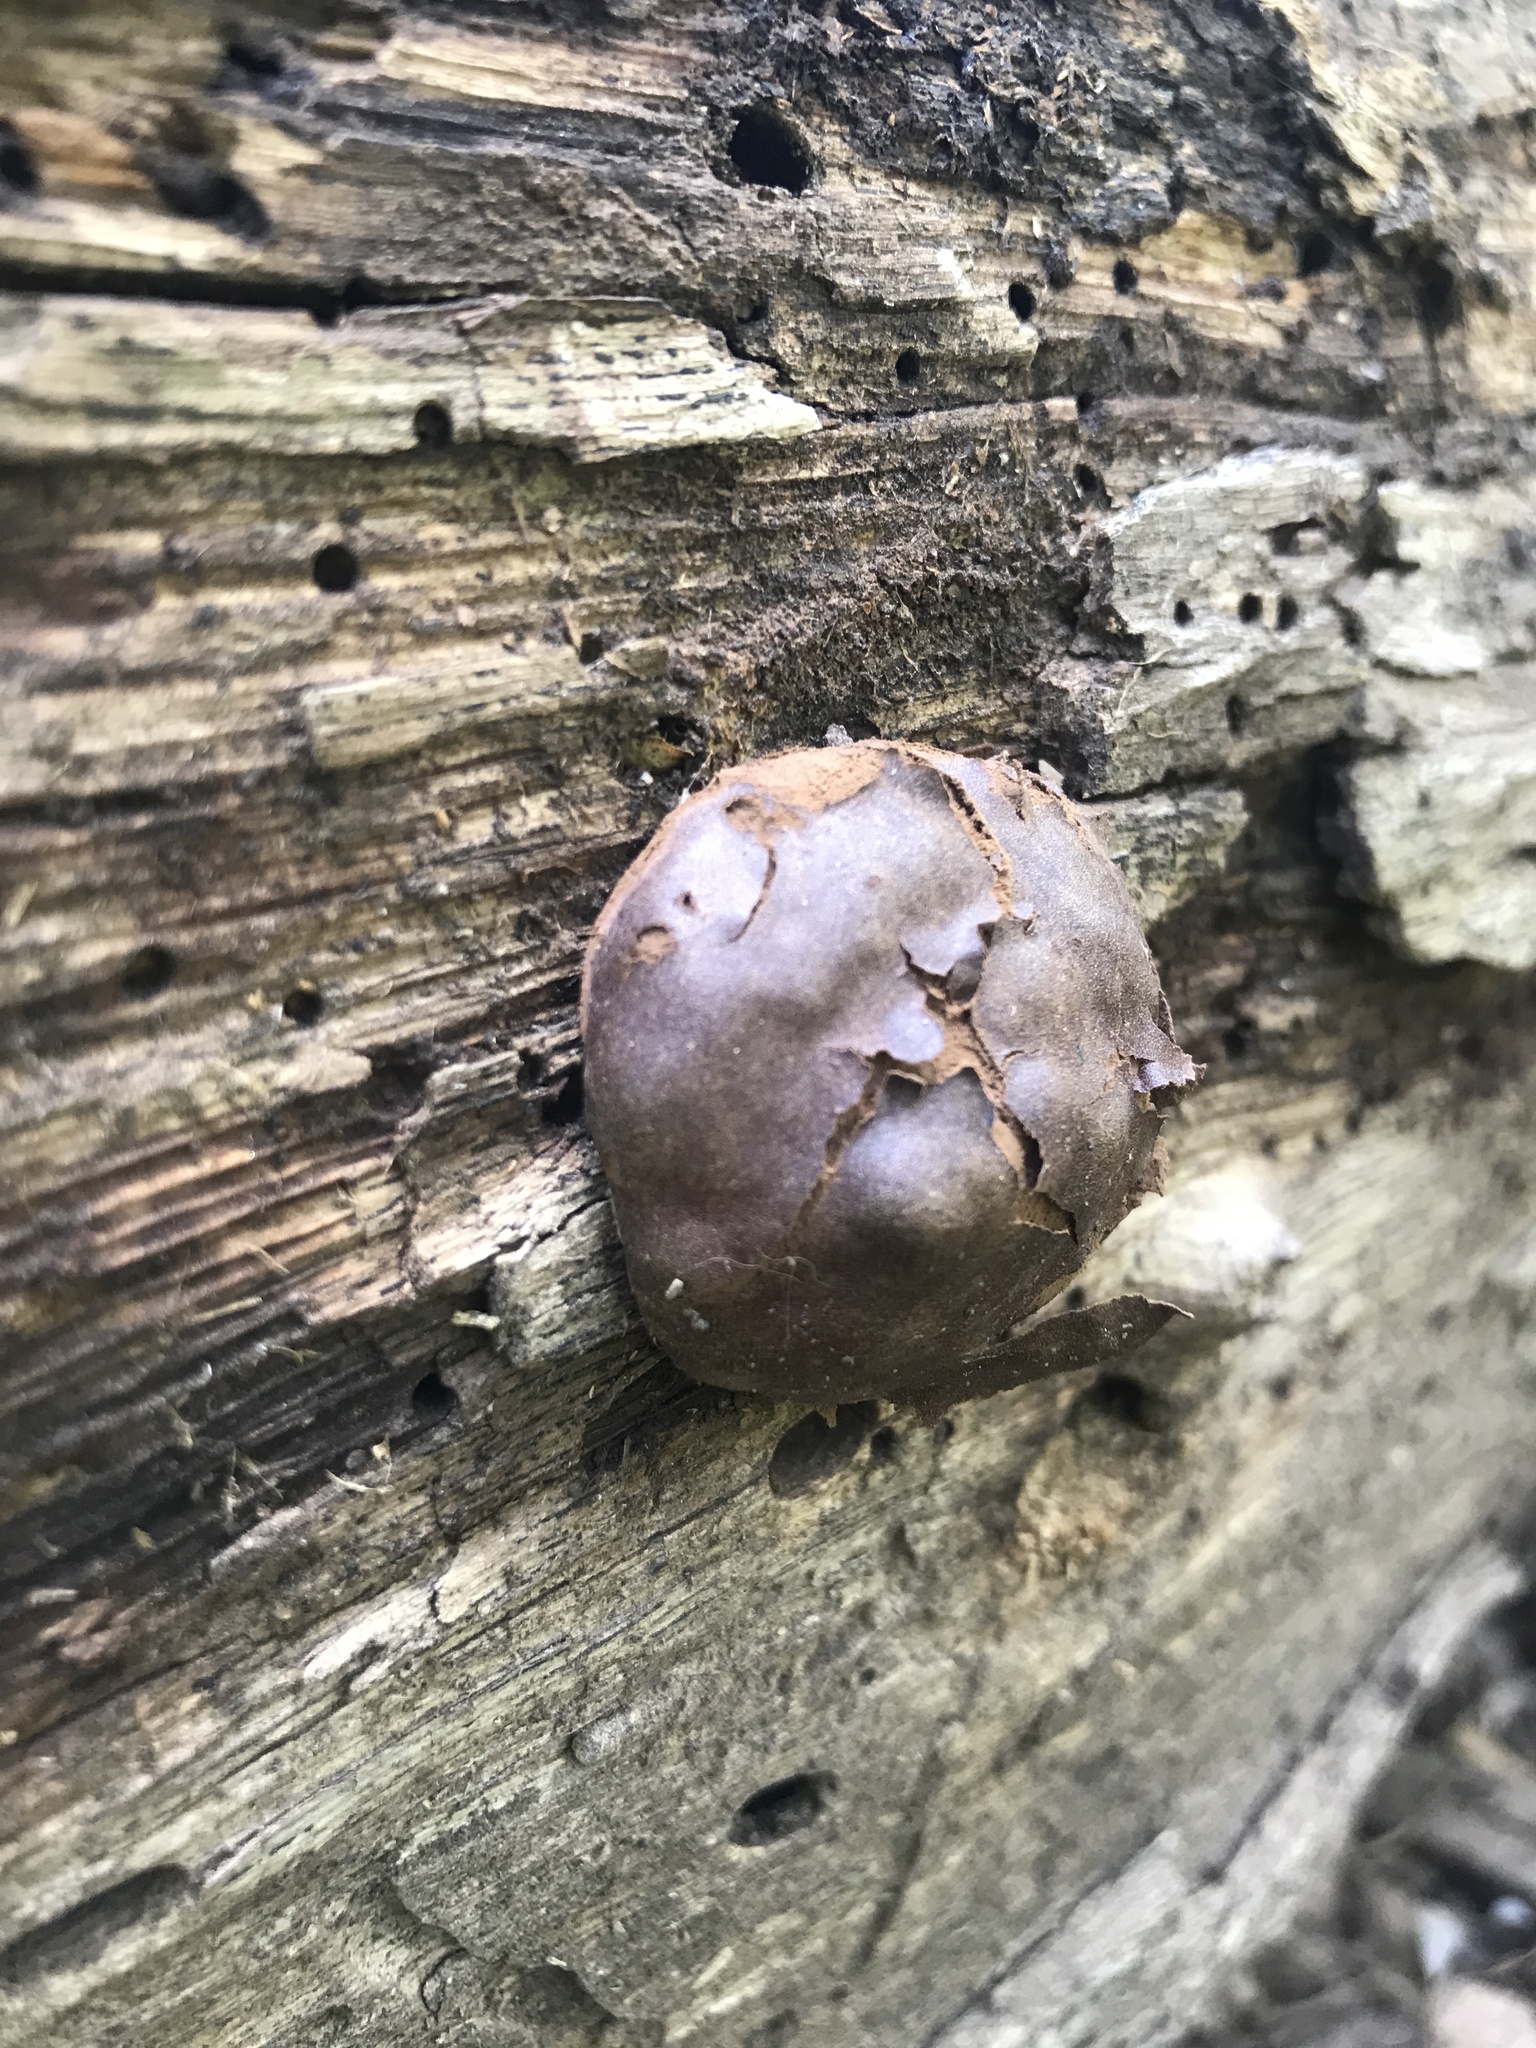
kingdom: Protozoa
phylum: Mycetozoa
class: Myxomycetes
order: Cribrariales
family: Tubiferaceae
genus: Reticularia
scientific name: Reticularia splendens
